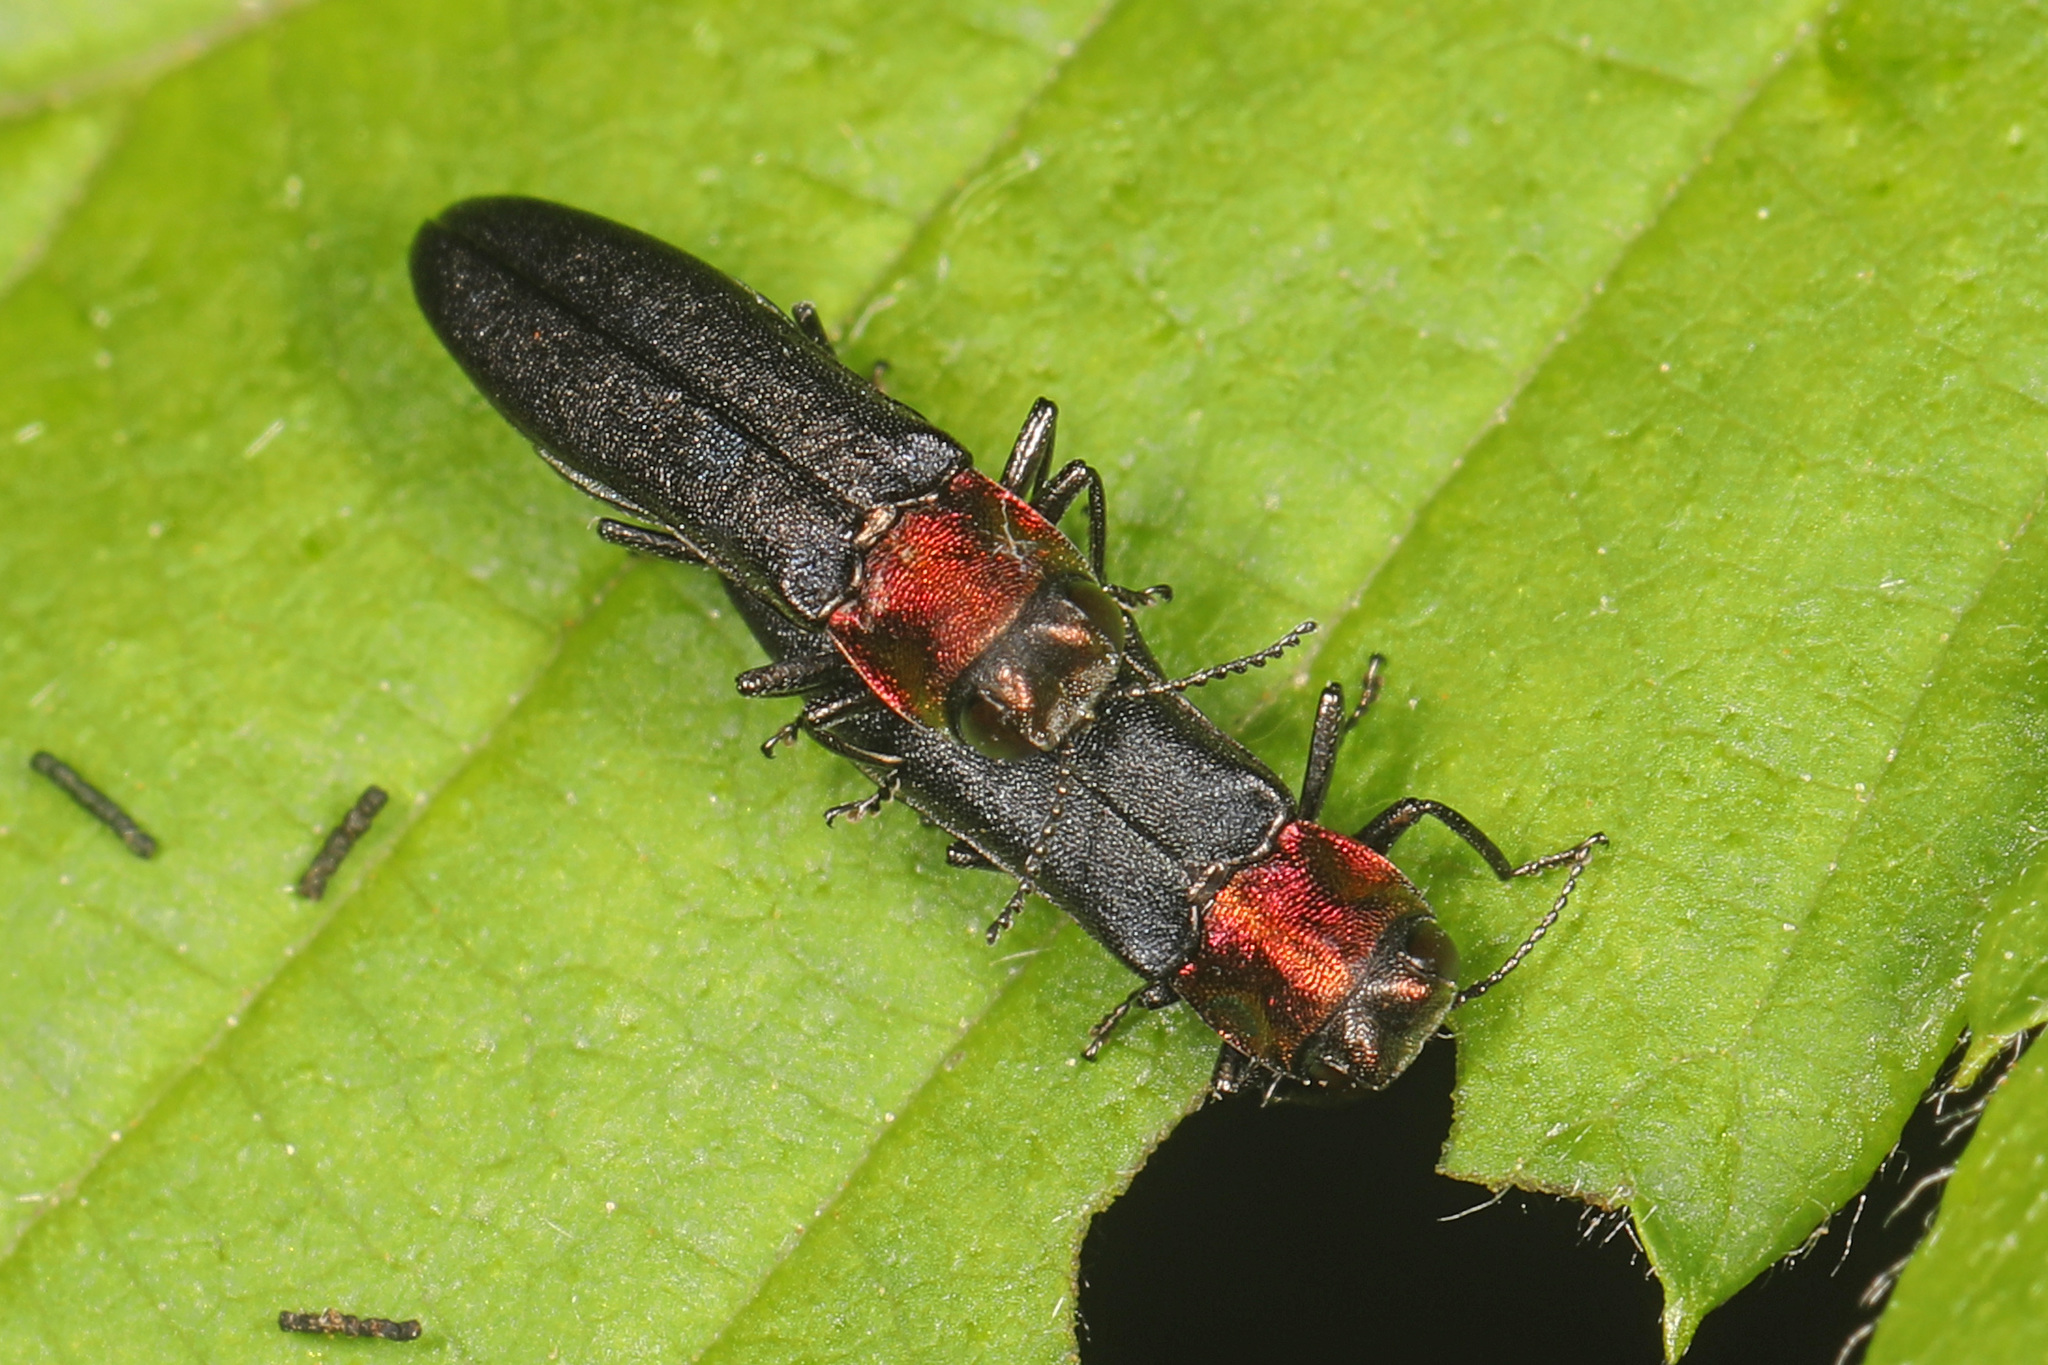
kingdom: Animalia
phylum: Arthropoda
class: Insecta
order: Coleoptera
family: Buprestidae
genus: Agrilus
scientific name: Agrilus ruficollis
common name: Red-necked cane borer beetle
